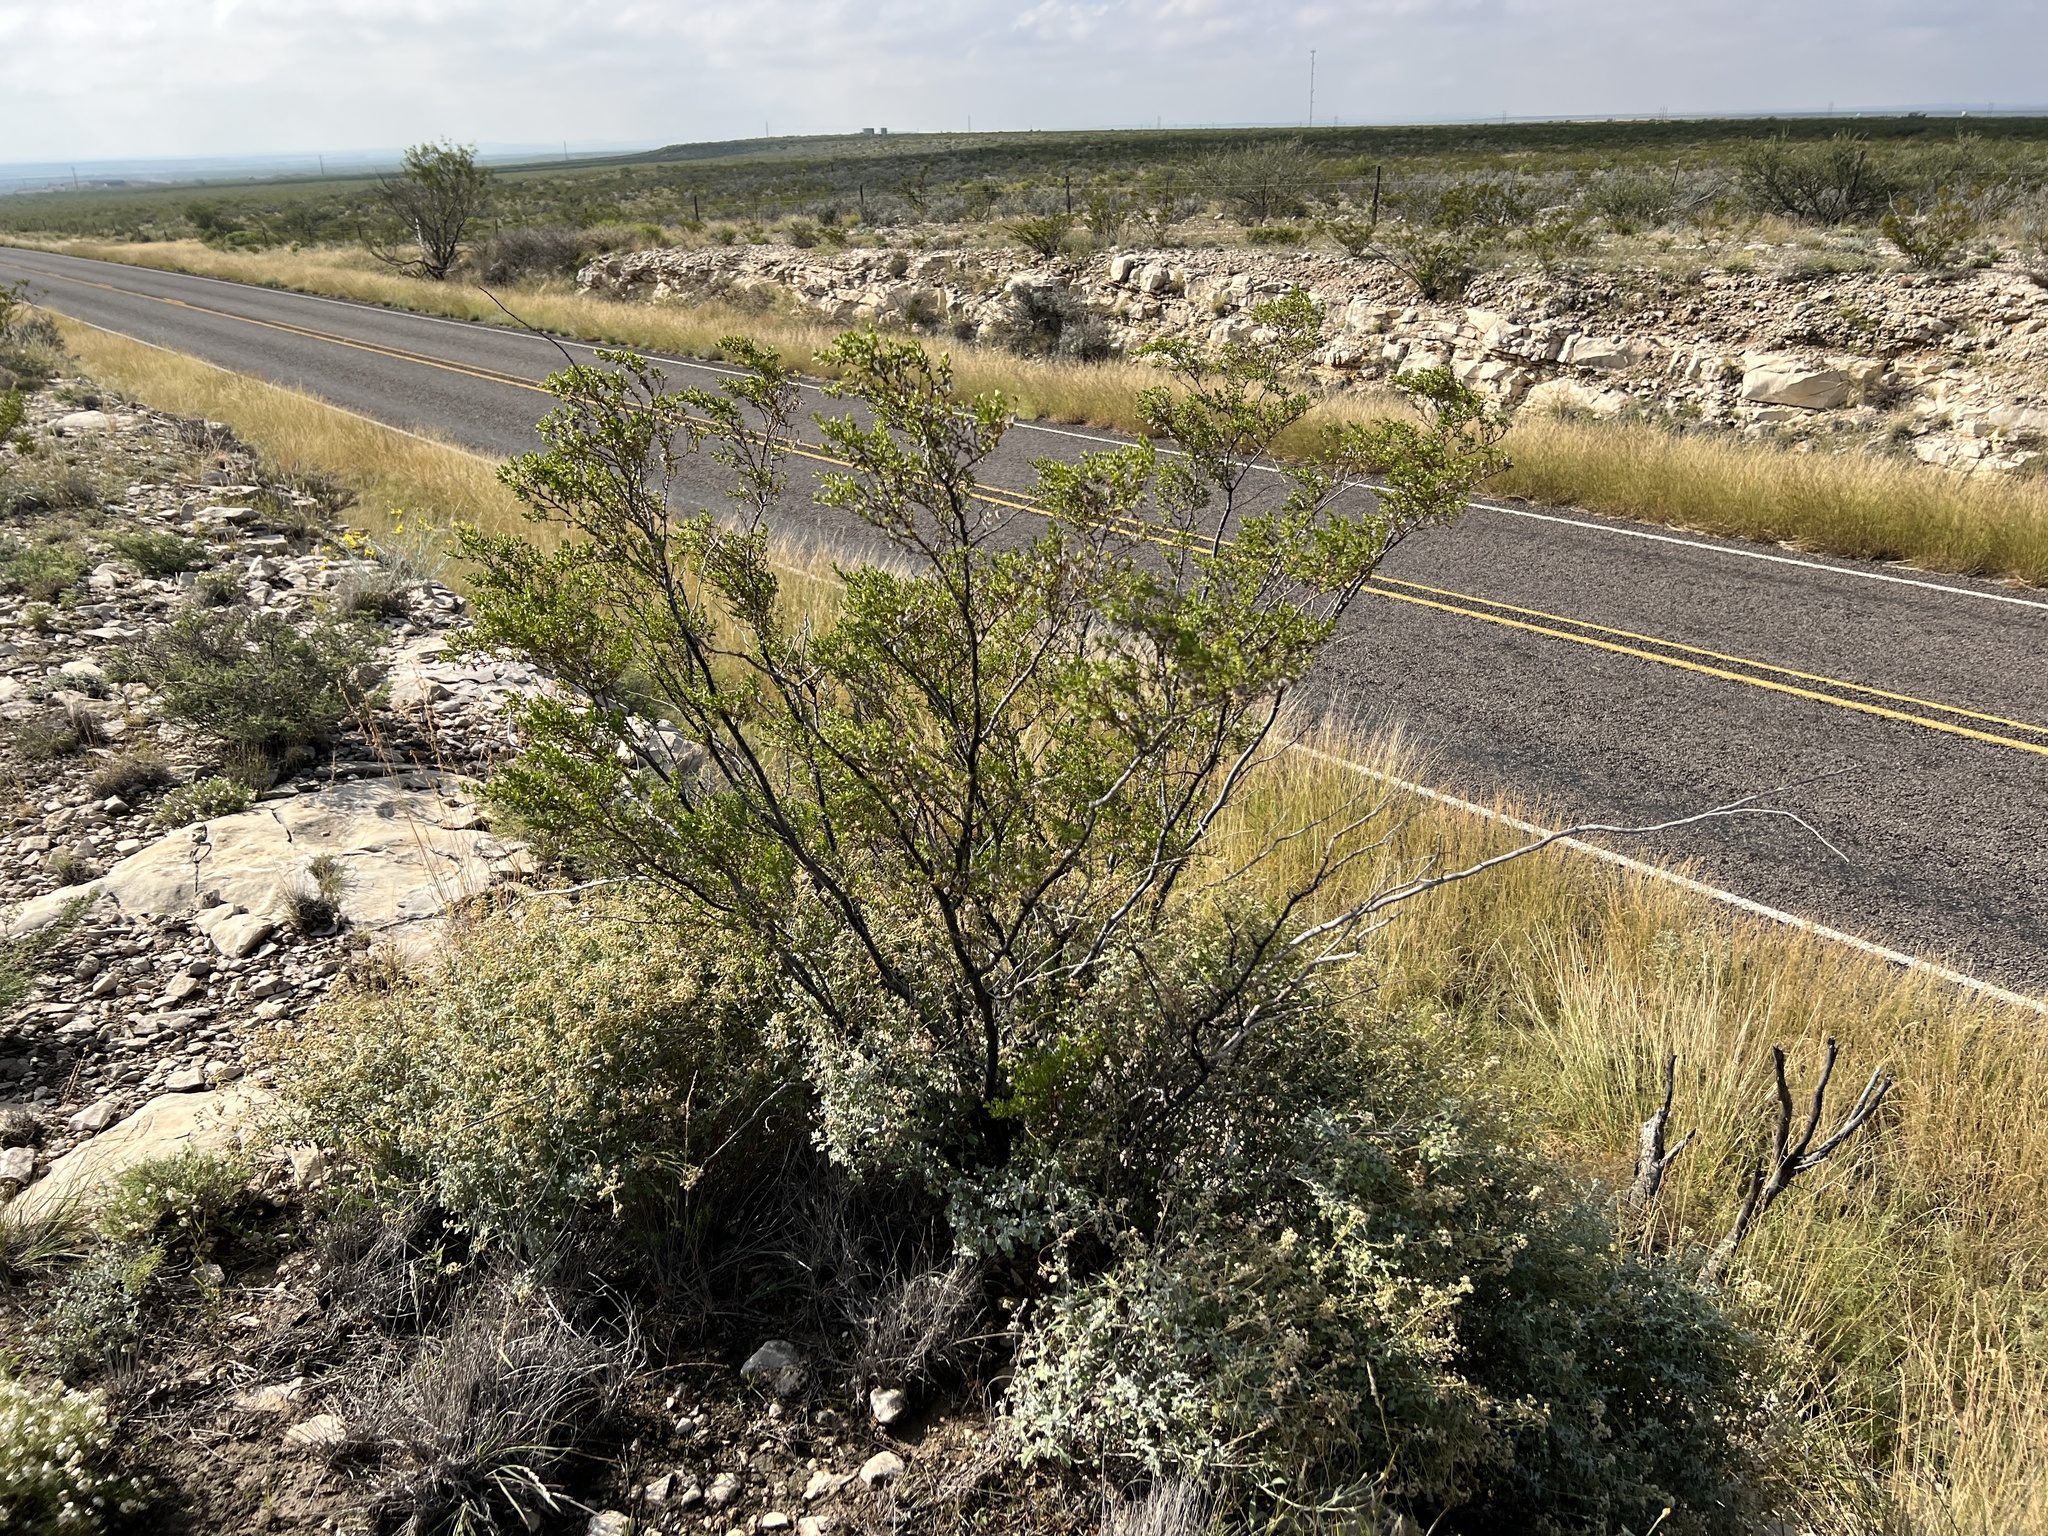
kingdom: Plantae
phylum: Tracheophyta
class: Magnoliopsida
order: Zygophyllales
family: Zygophyllaceae
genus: Larrea
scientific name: Larrea tridentata
